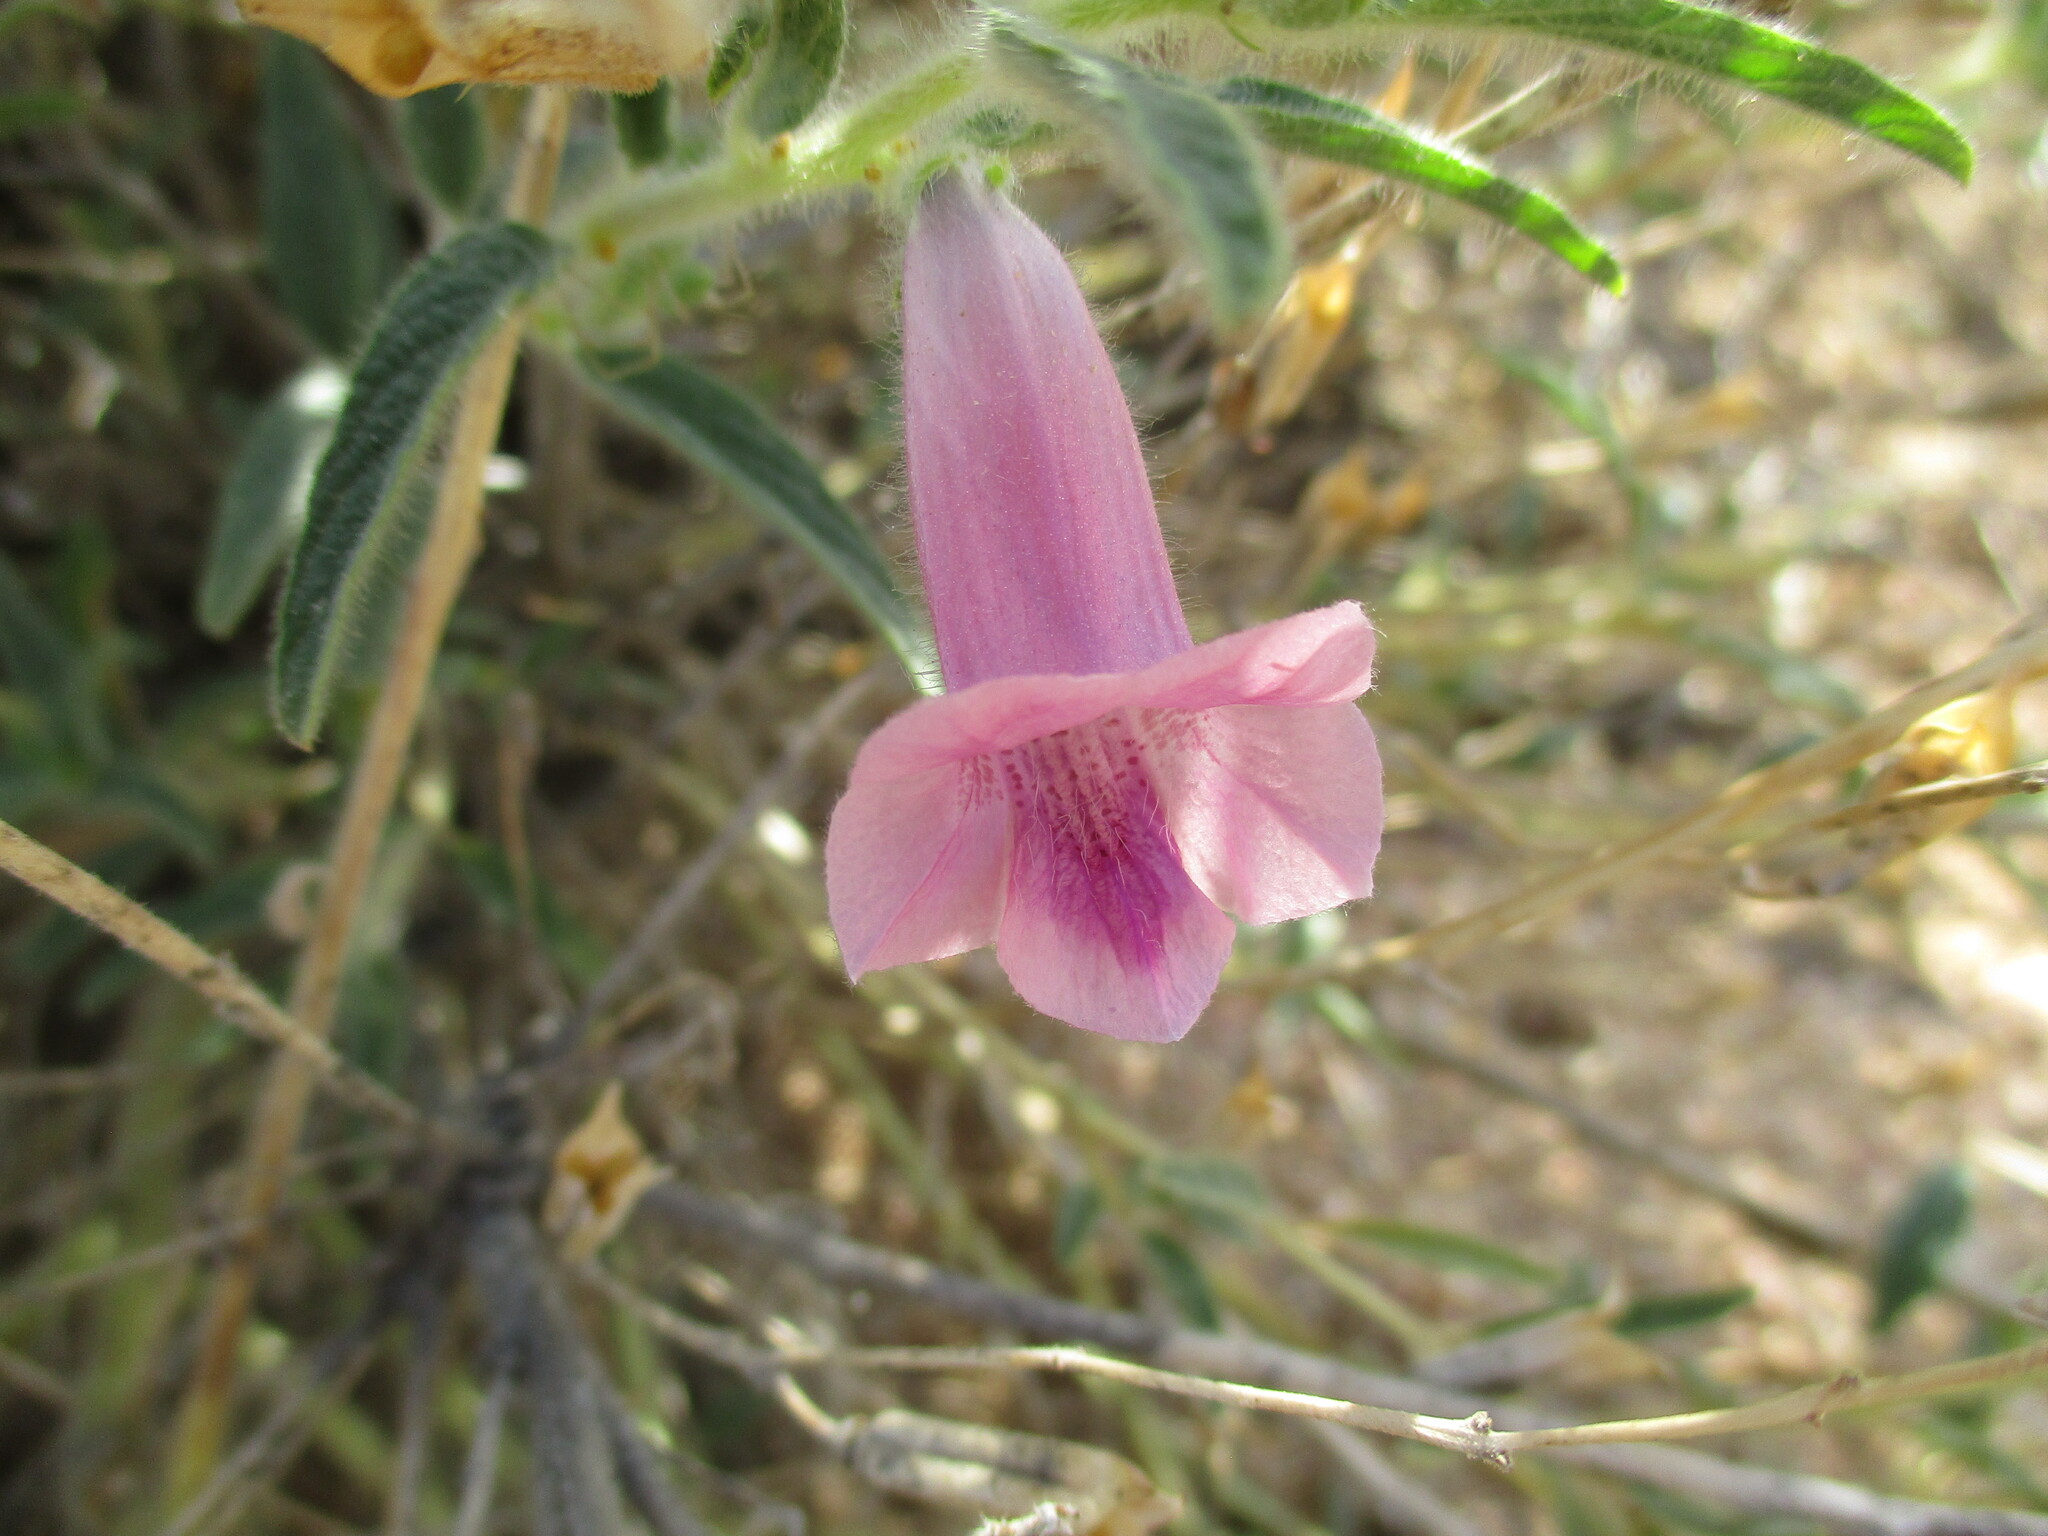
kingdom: Plantae
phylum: Tracheophyta
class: Magnoliopsida
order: Lamiales
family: Pedaliaceae
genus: Sesamum
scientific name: Sesamum schinzianum
